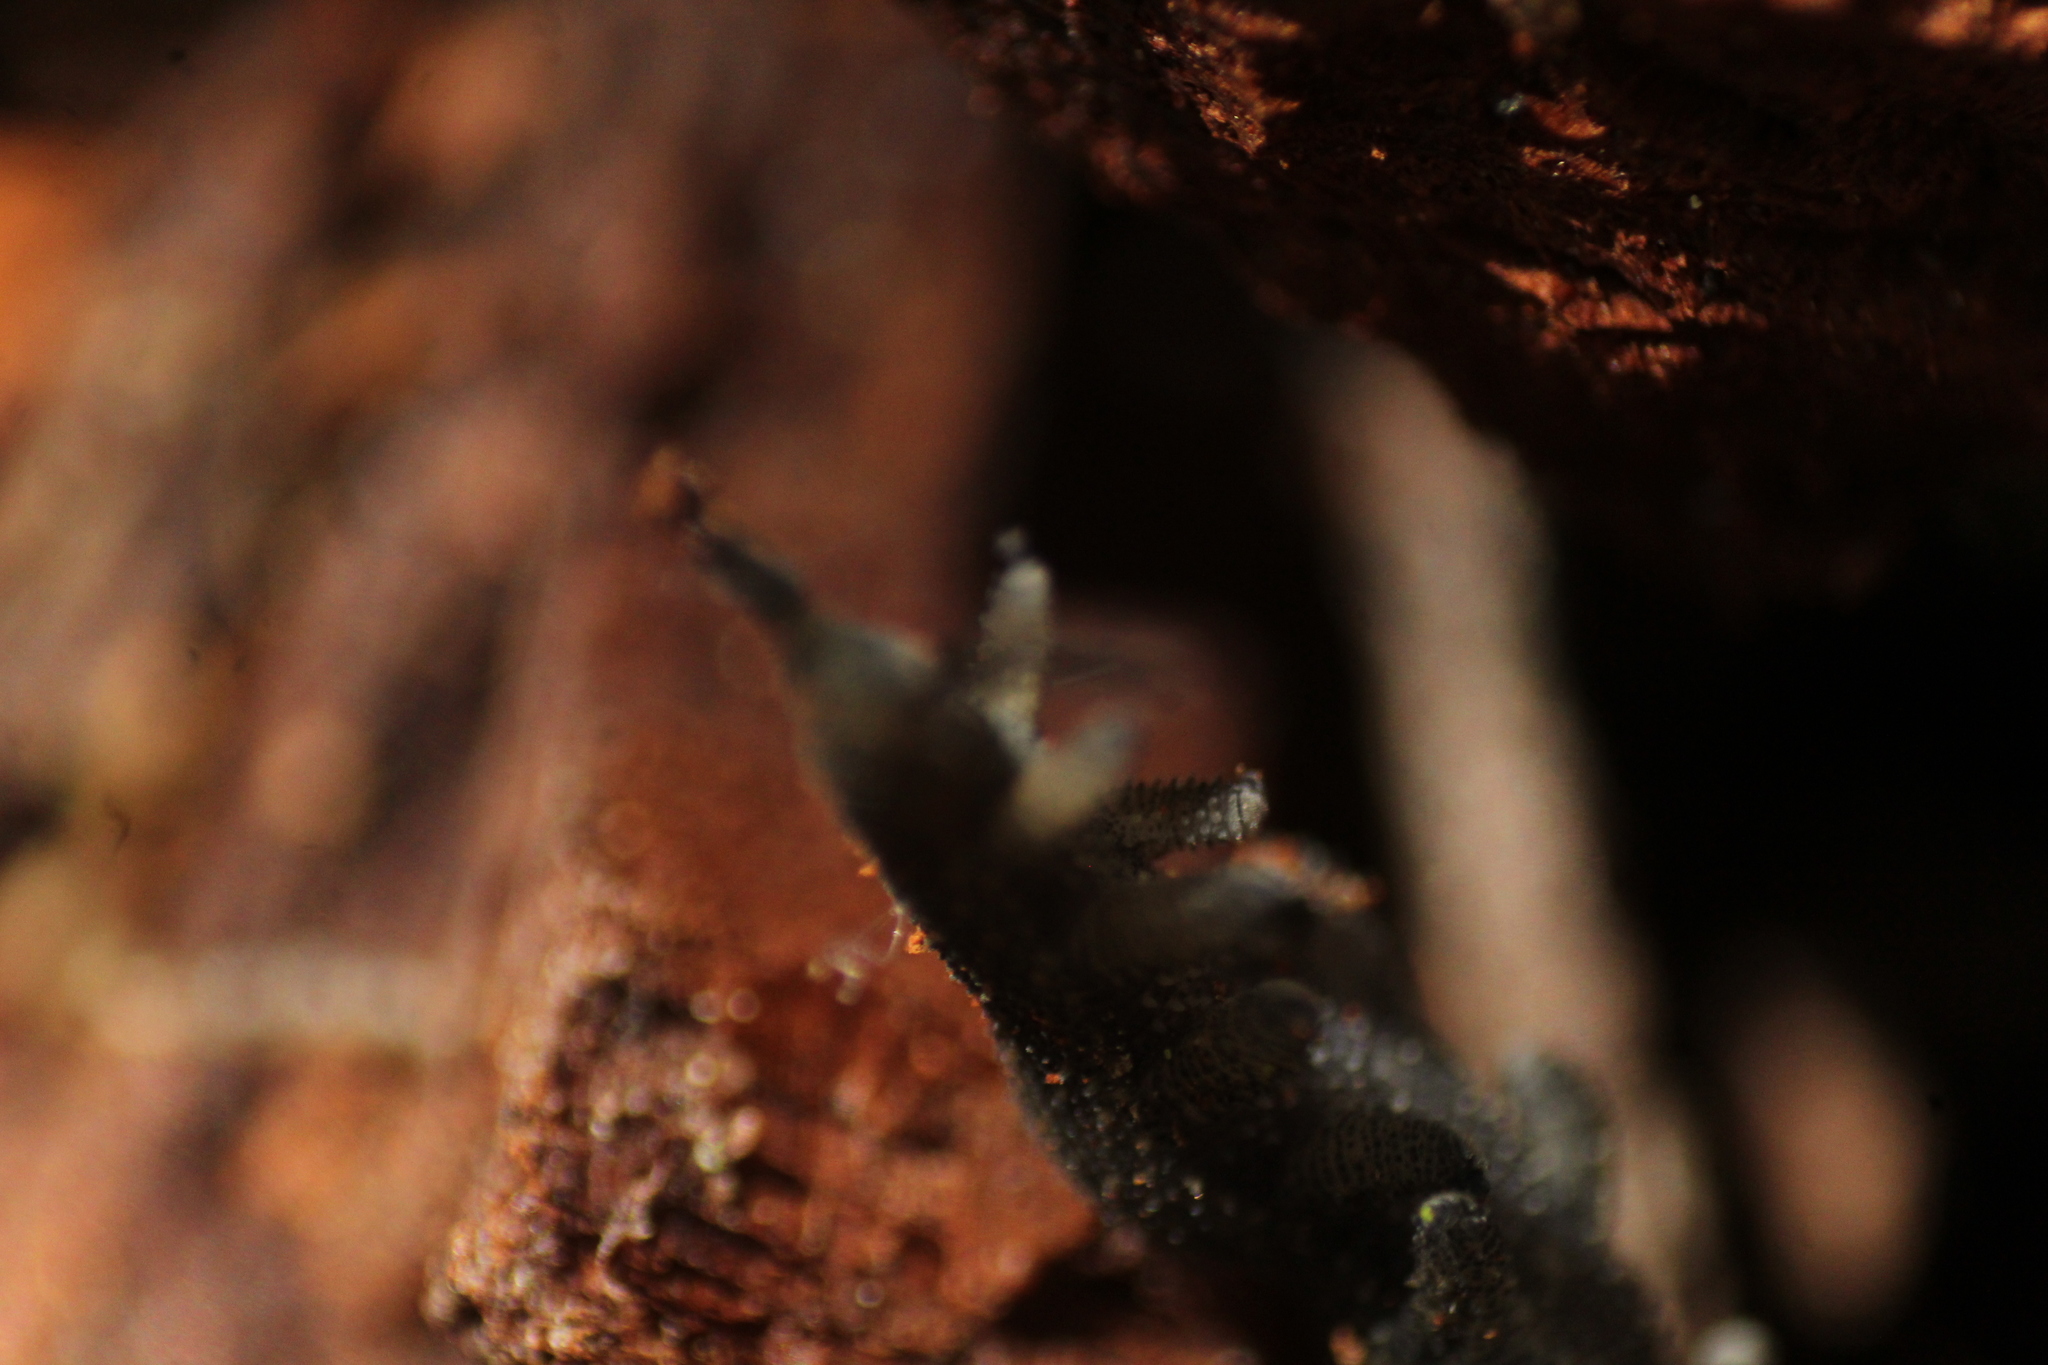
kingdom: Animalia
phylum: Onychophora
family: Peripatopsidae
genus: Kumbadjena
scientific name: Kumbadjena kaata
